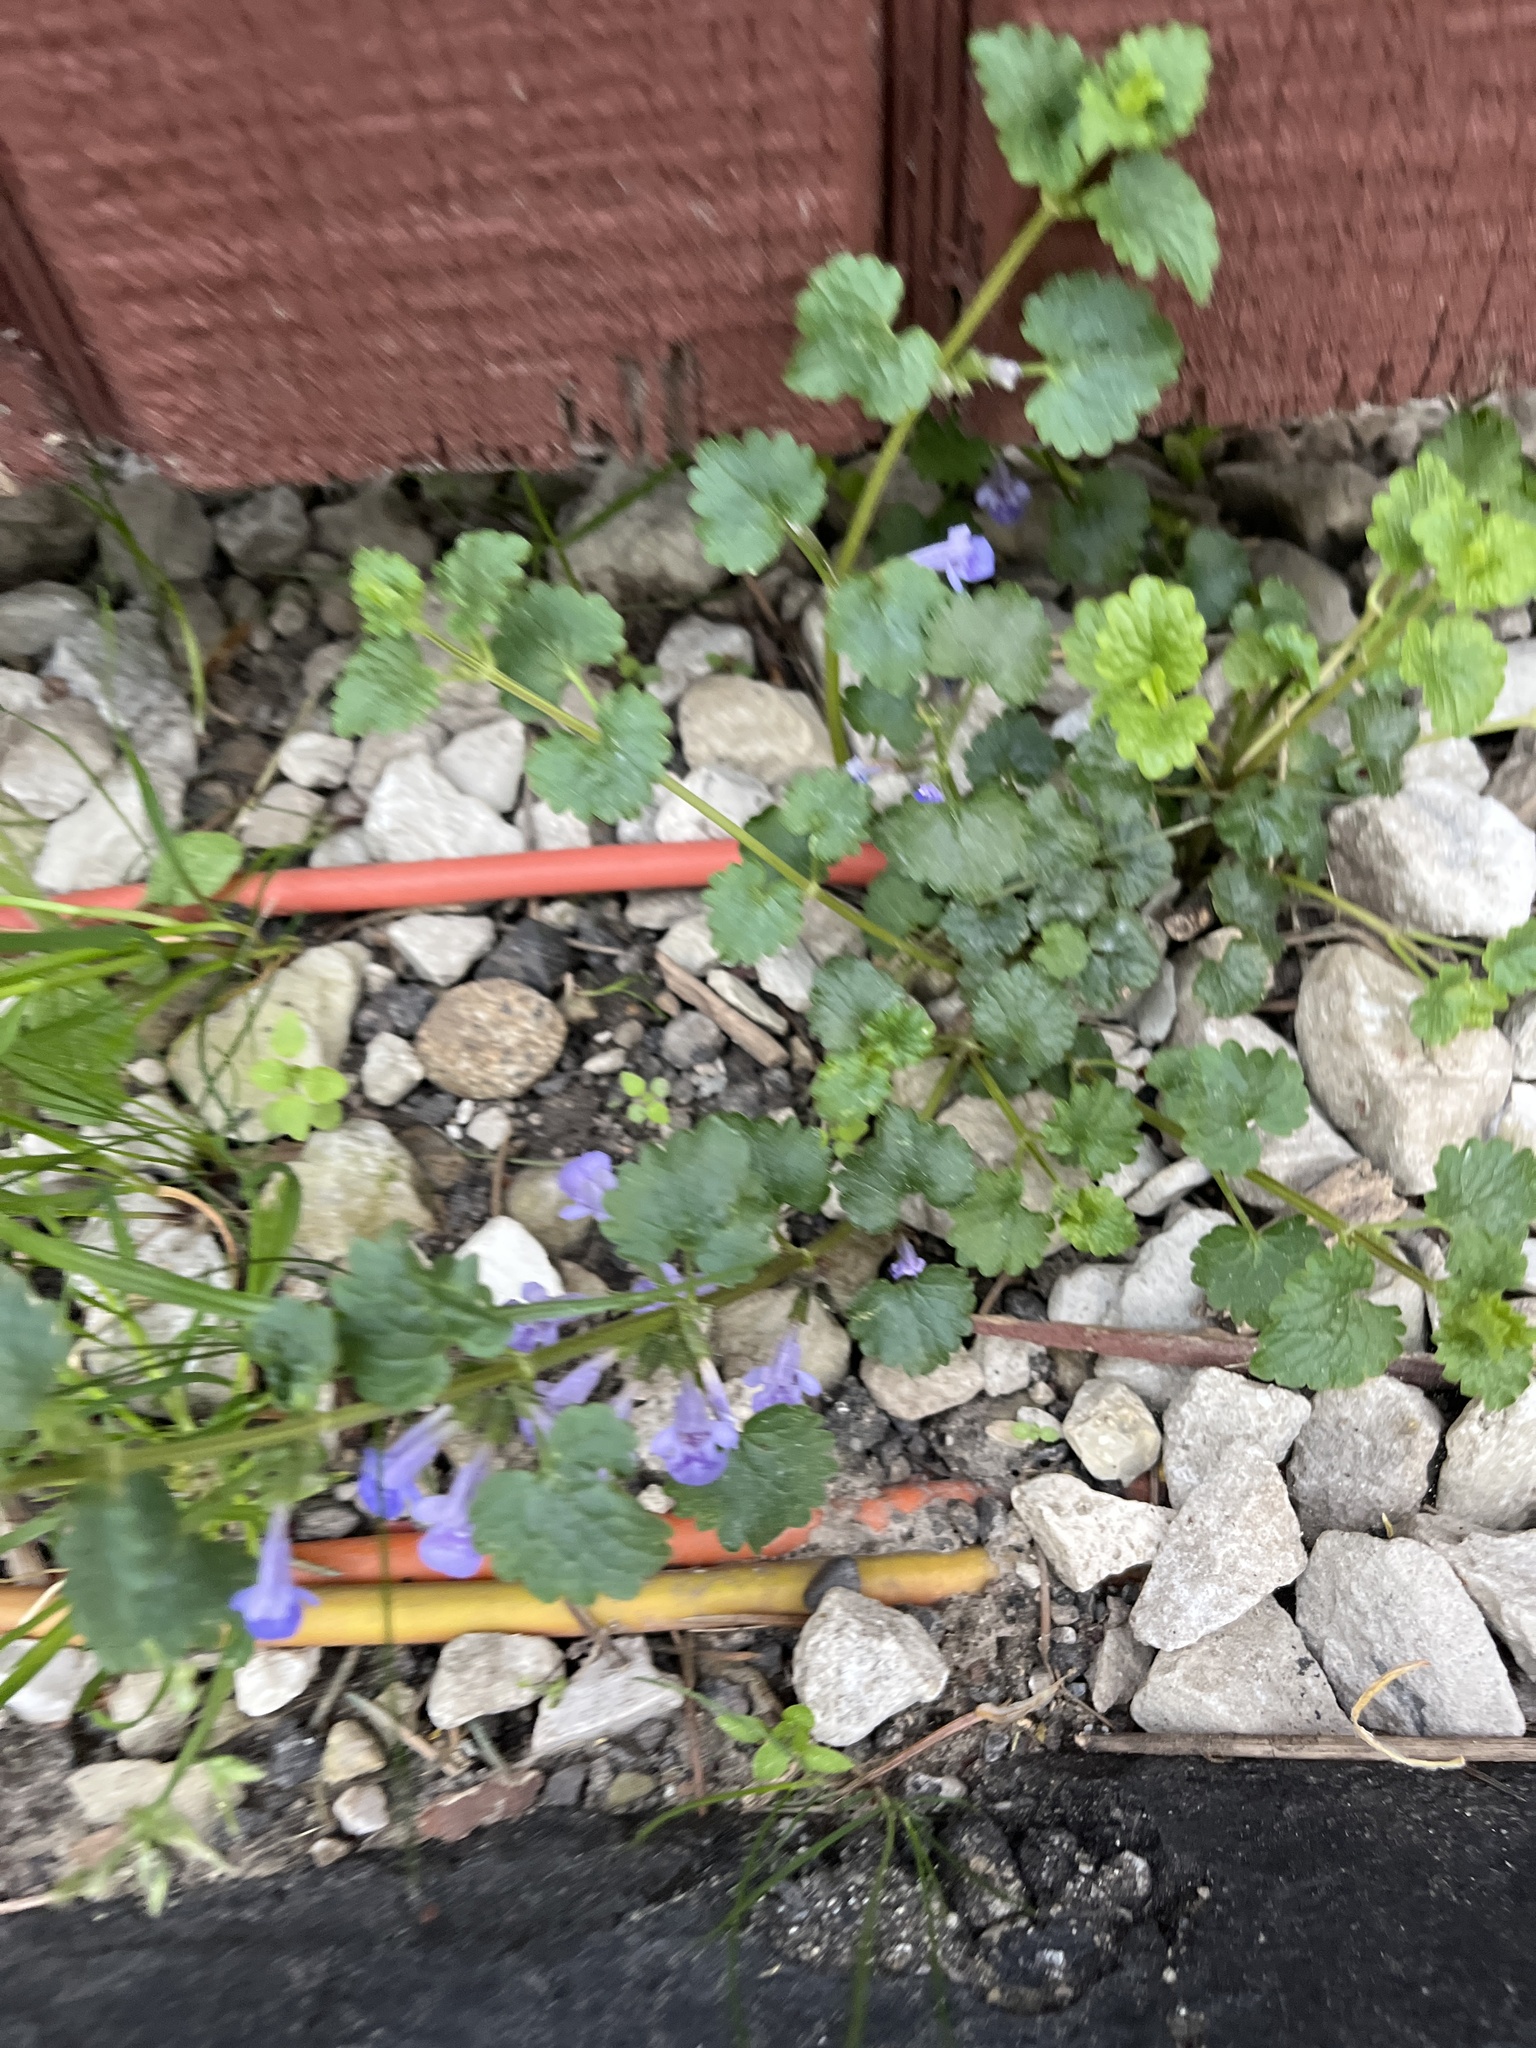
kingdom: Plantae
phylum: Tracheophyta
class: Magnoliopsida
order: Lamiales
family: Lamiaceae
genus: Glechoma
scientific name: Glechoma hederacea
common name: Ground ivy
